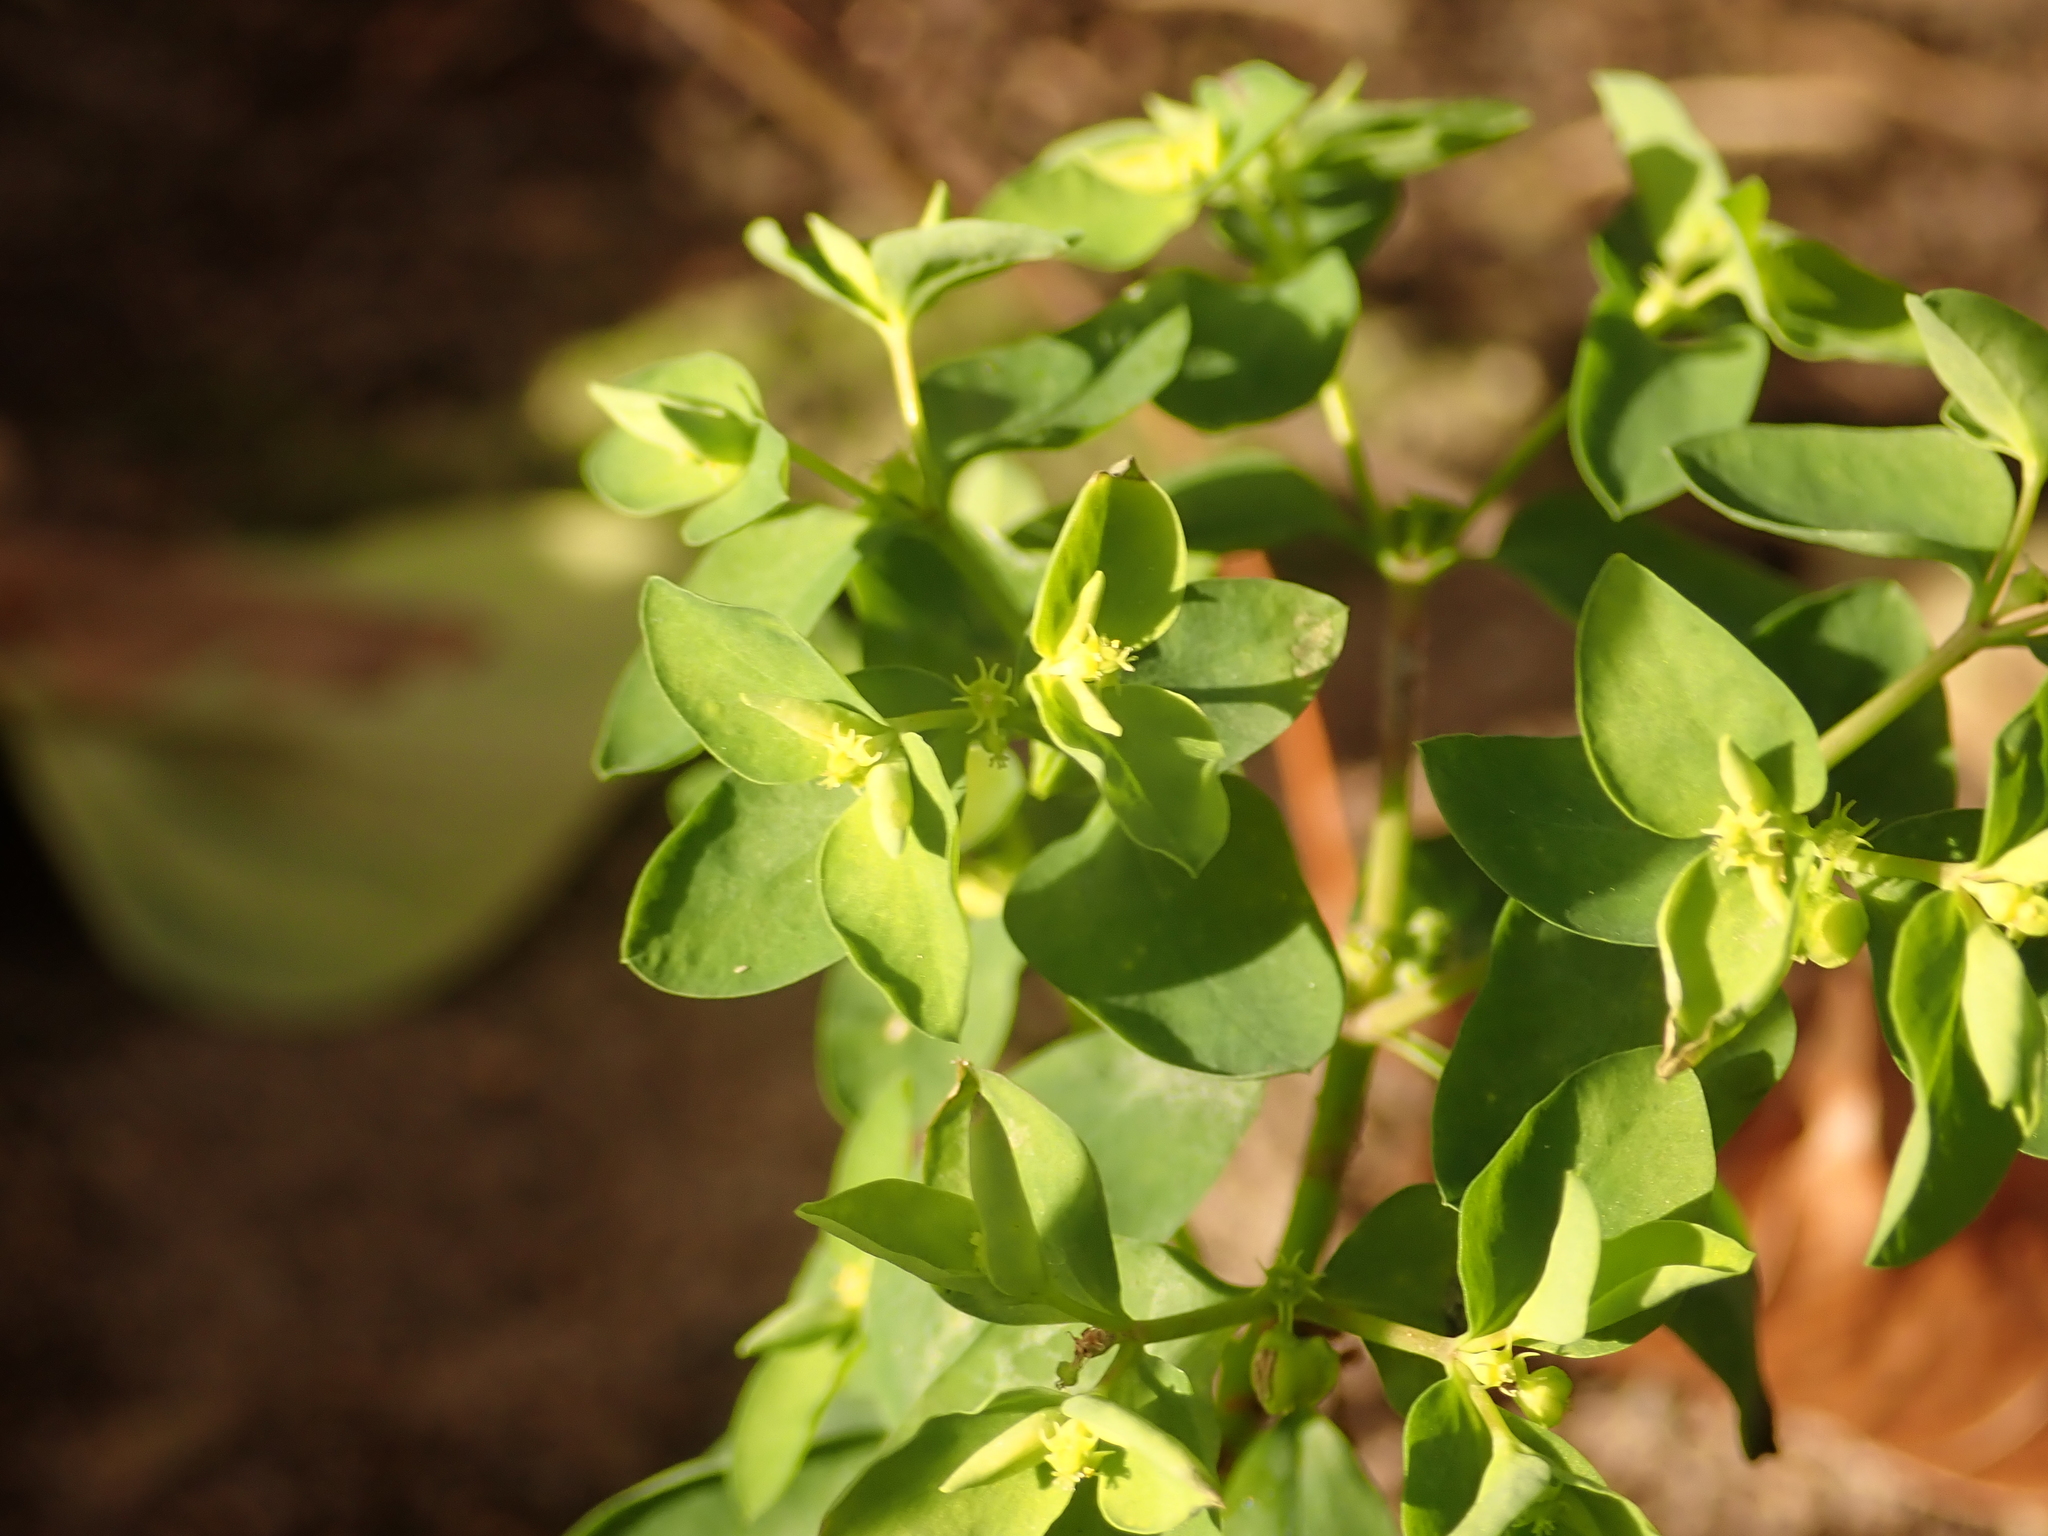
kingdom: Plantae
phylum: Tracheophyta
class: Magnoliopsida
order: Malpighiales
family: Euphorbiaceae
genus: Euphorbia
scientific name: Euphorbia peplus
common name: Petty spurge
